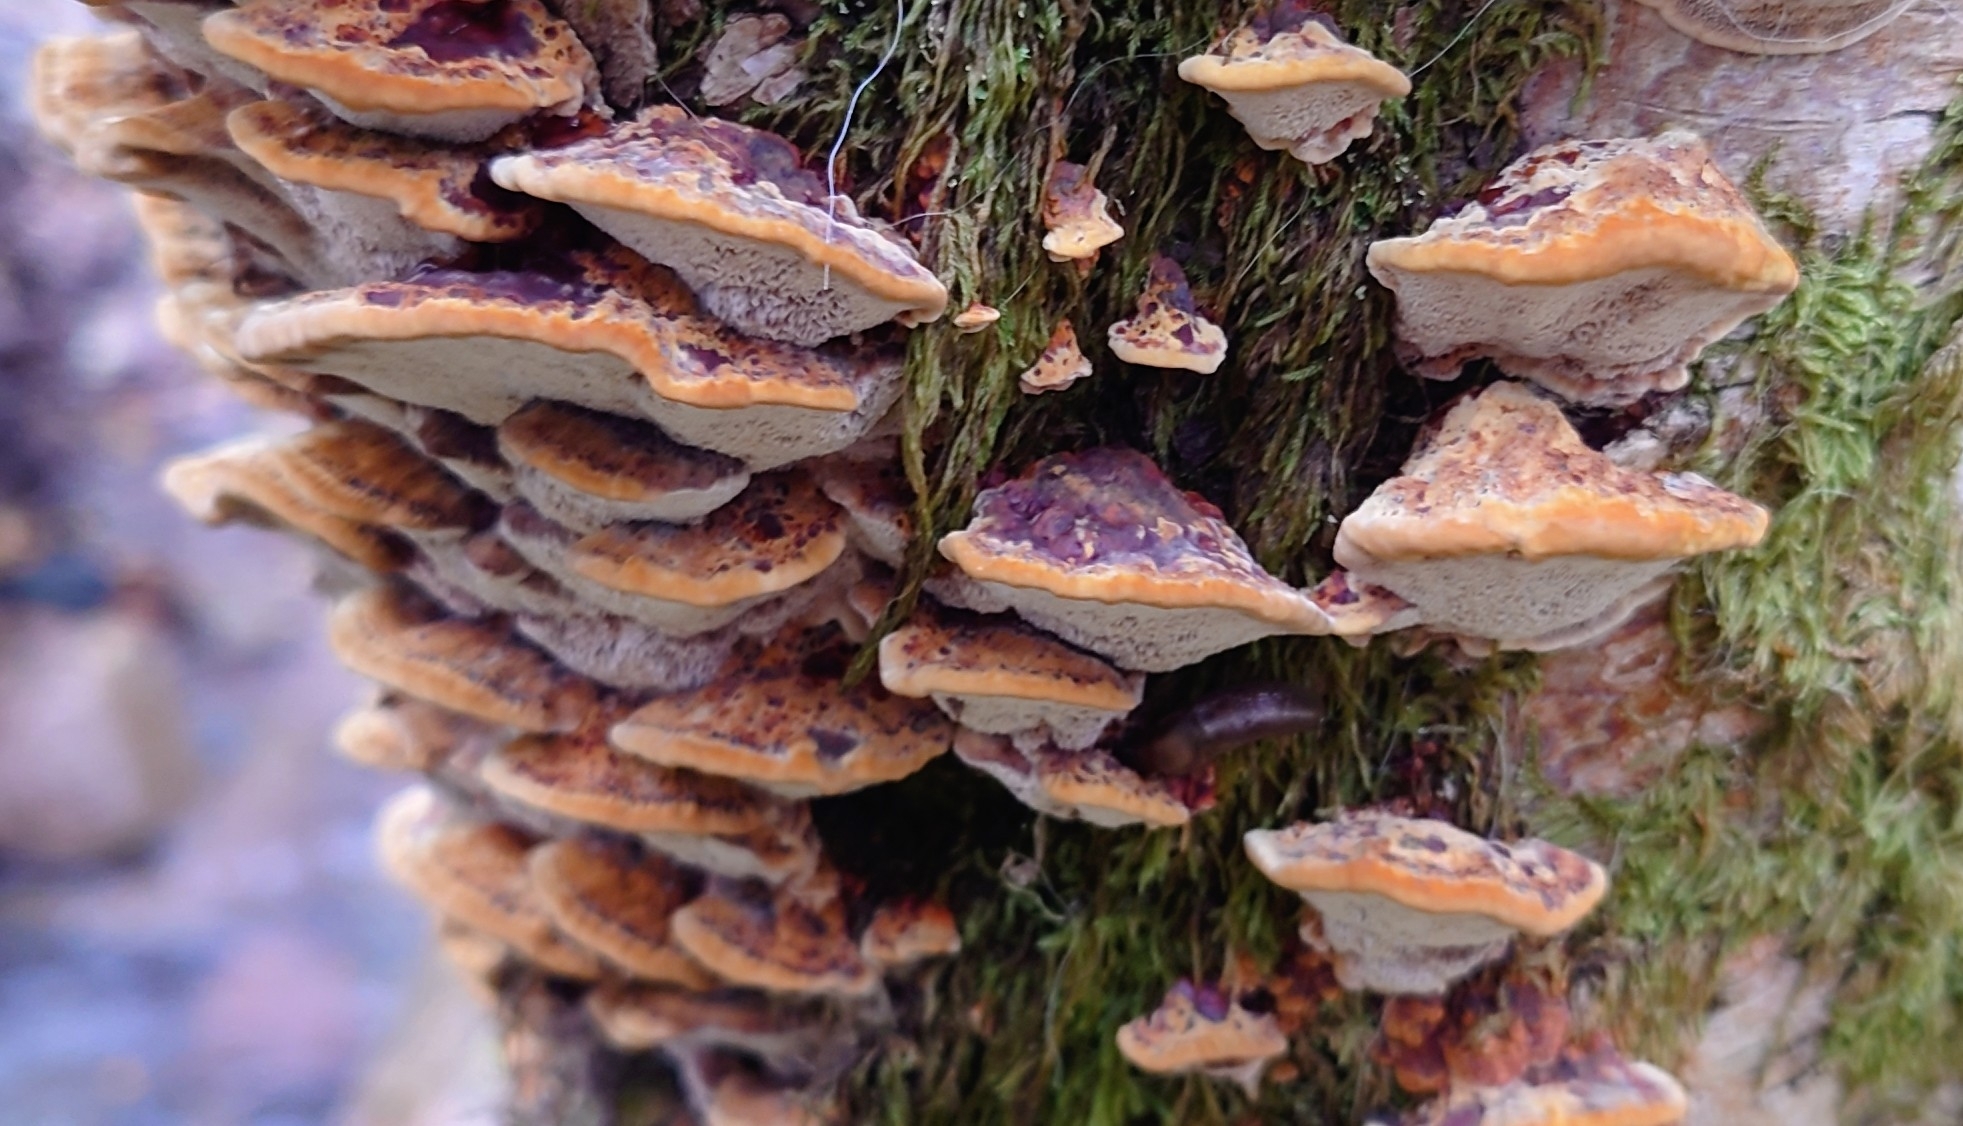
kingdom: Fungi
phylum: Basidiomycota
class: Agaricomycetes
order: Hymenochaetales
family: Hymenochaetaceae
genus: Xanthoporia
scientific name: Xanthoporia radiata
